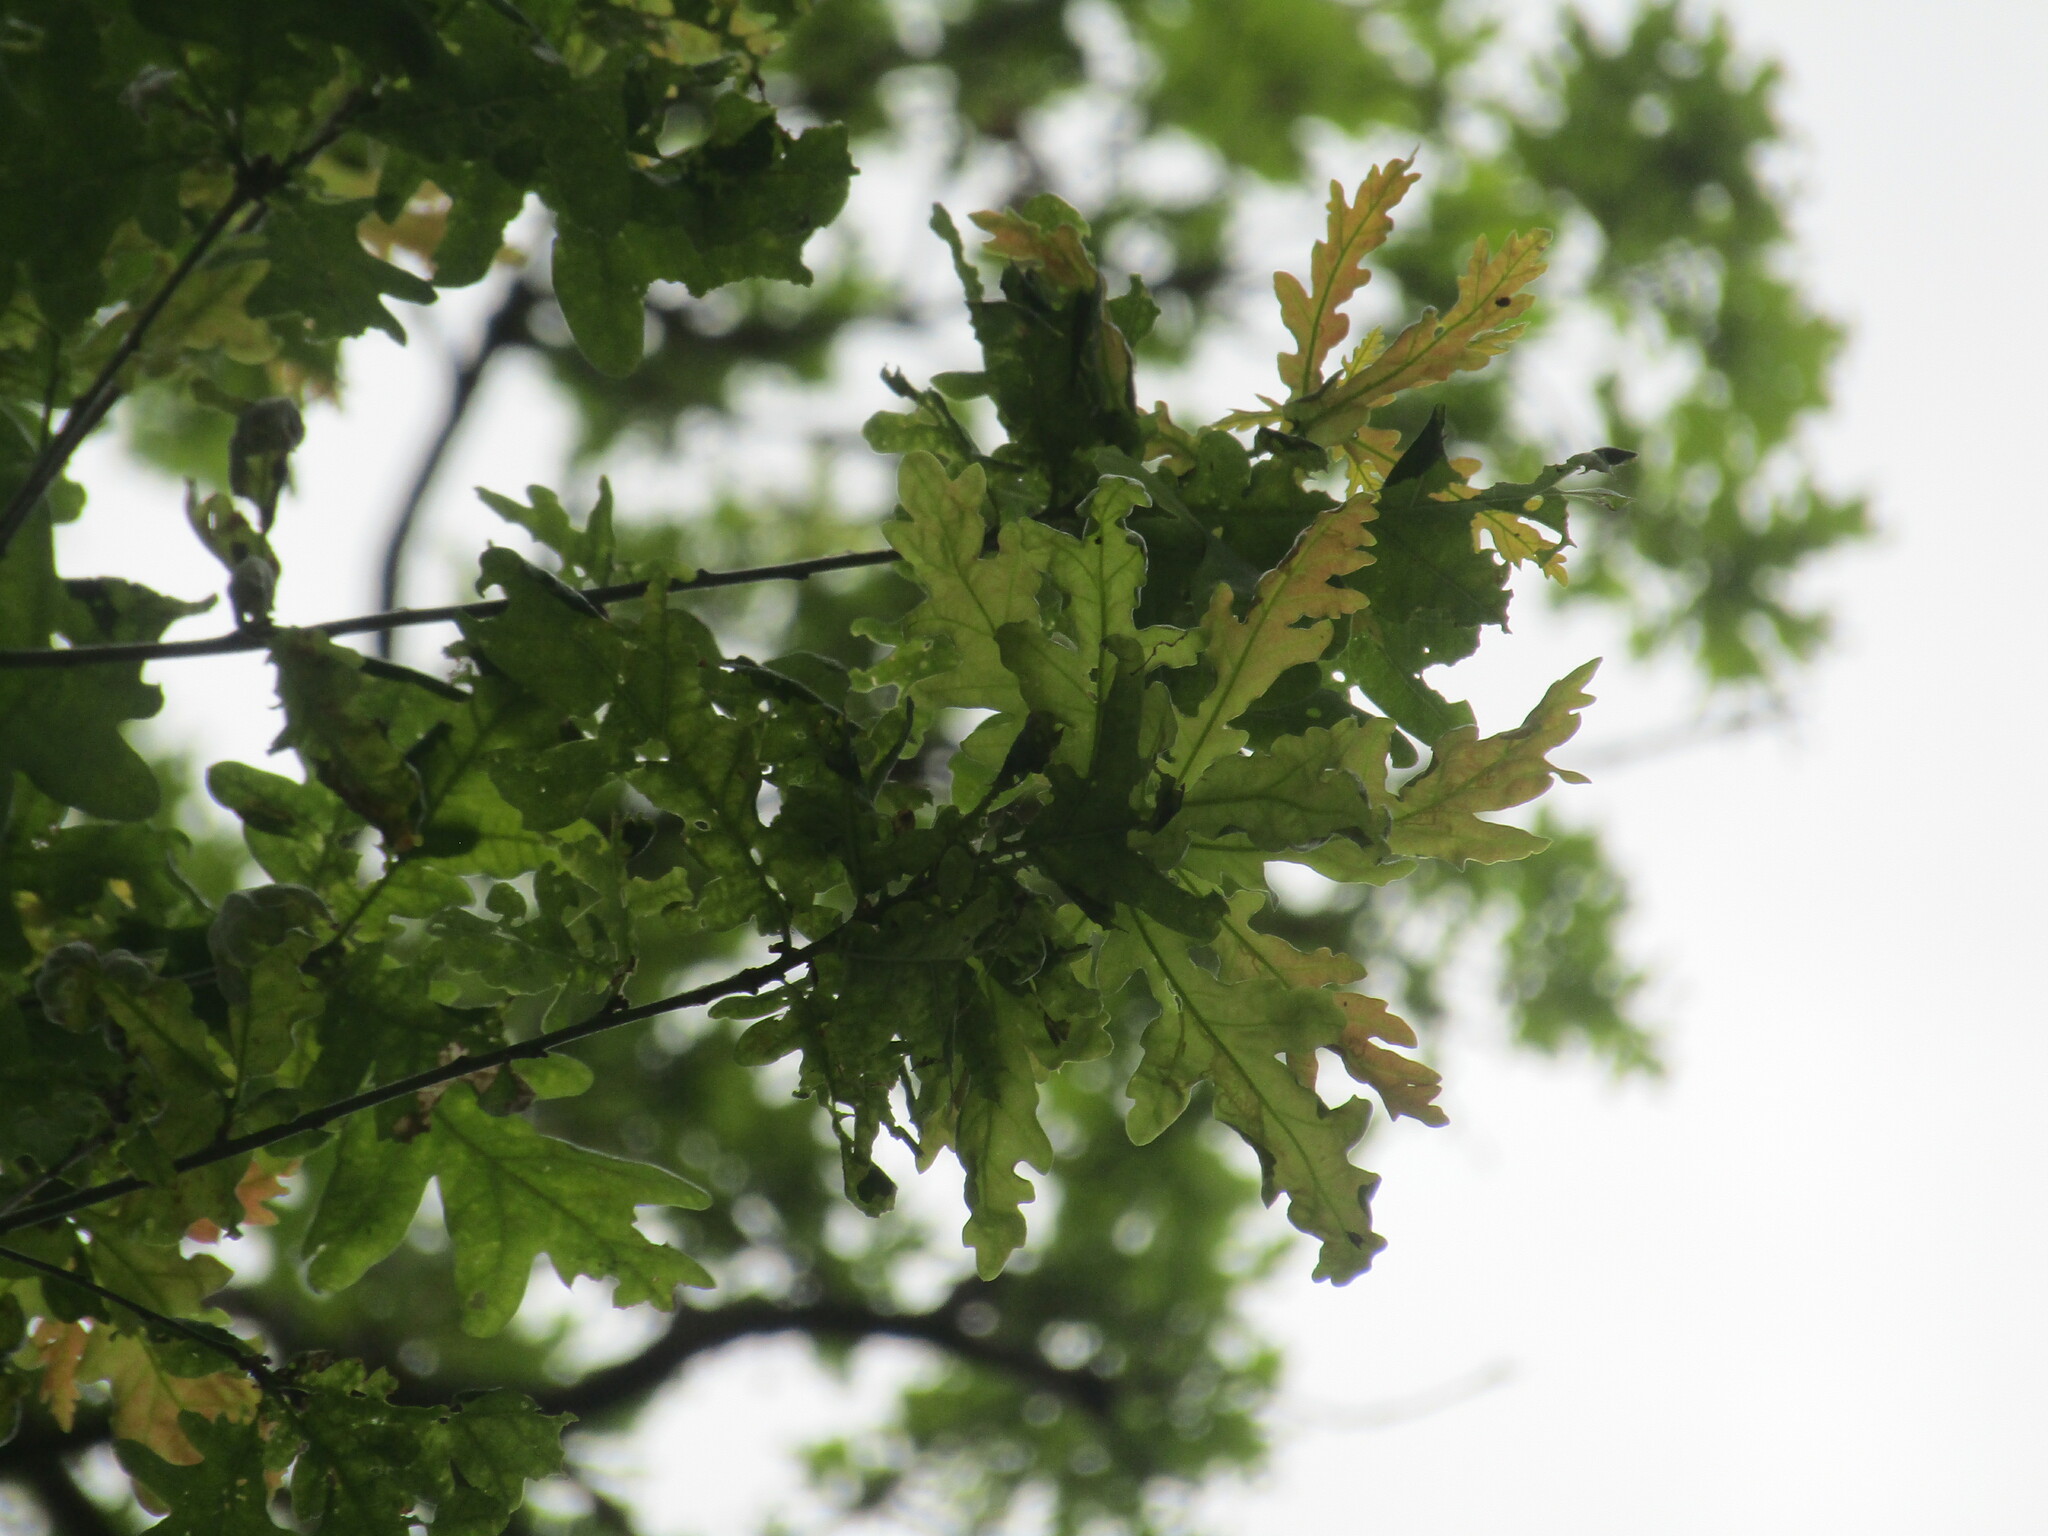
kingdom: Plantae
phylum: Tracheophyta
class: Magnoliopsida
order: Fagales
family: Fagaceae
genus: Quercus
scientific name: Quercus robur
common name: Pedunculate oak
